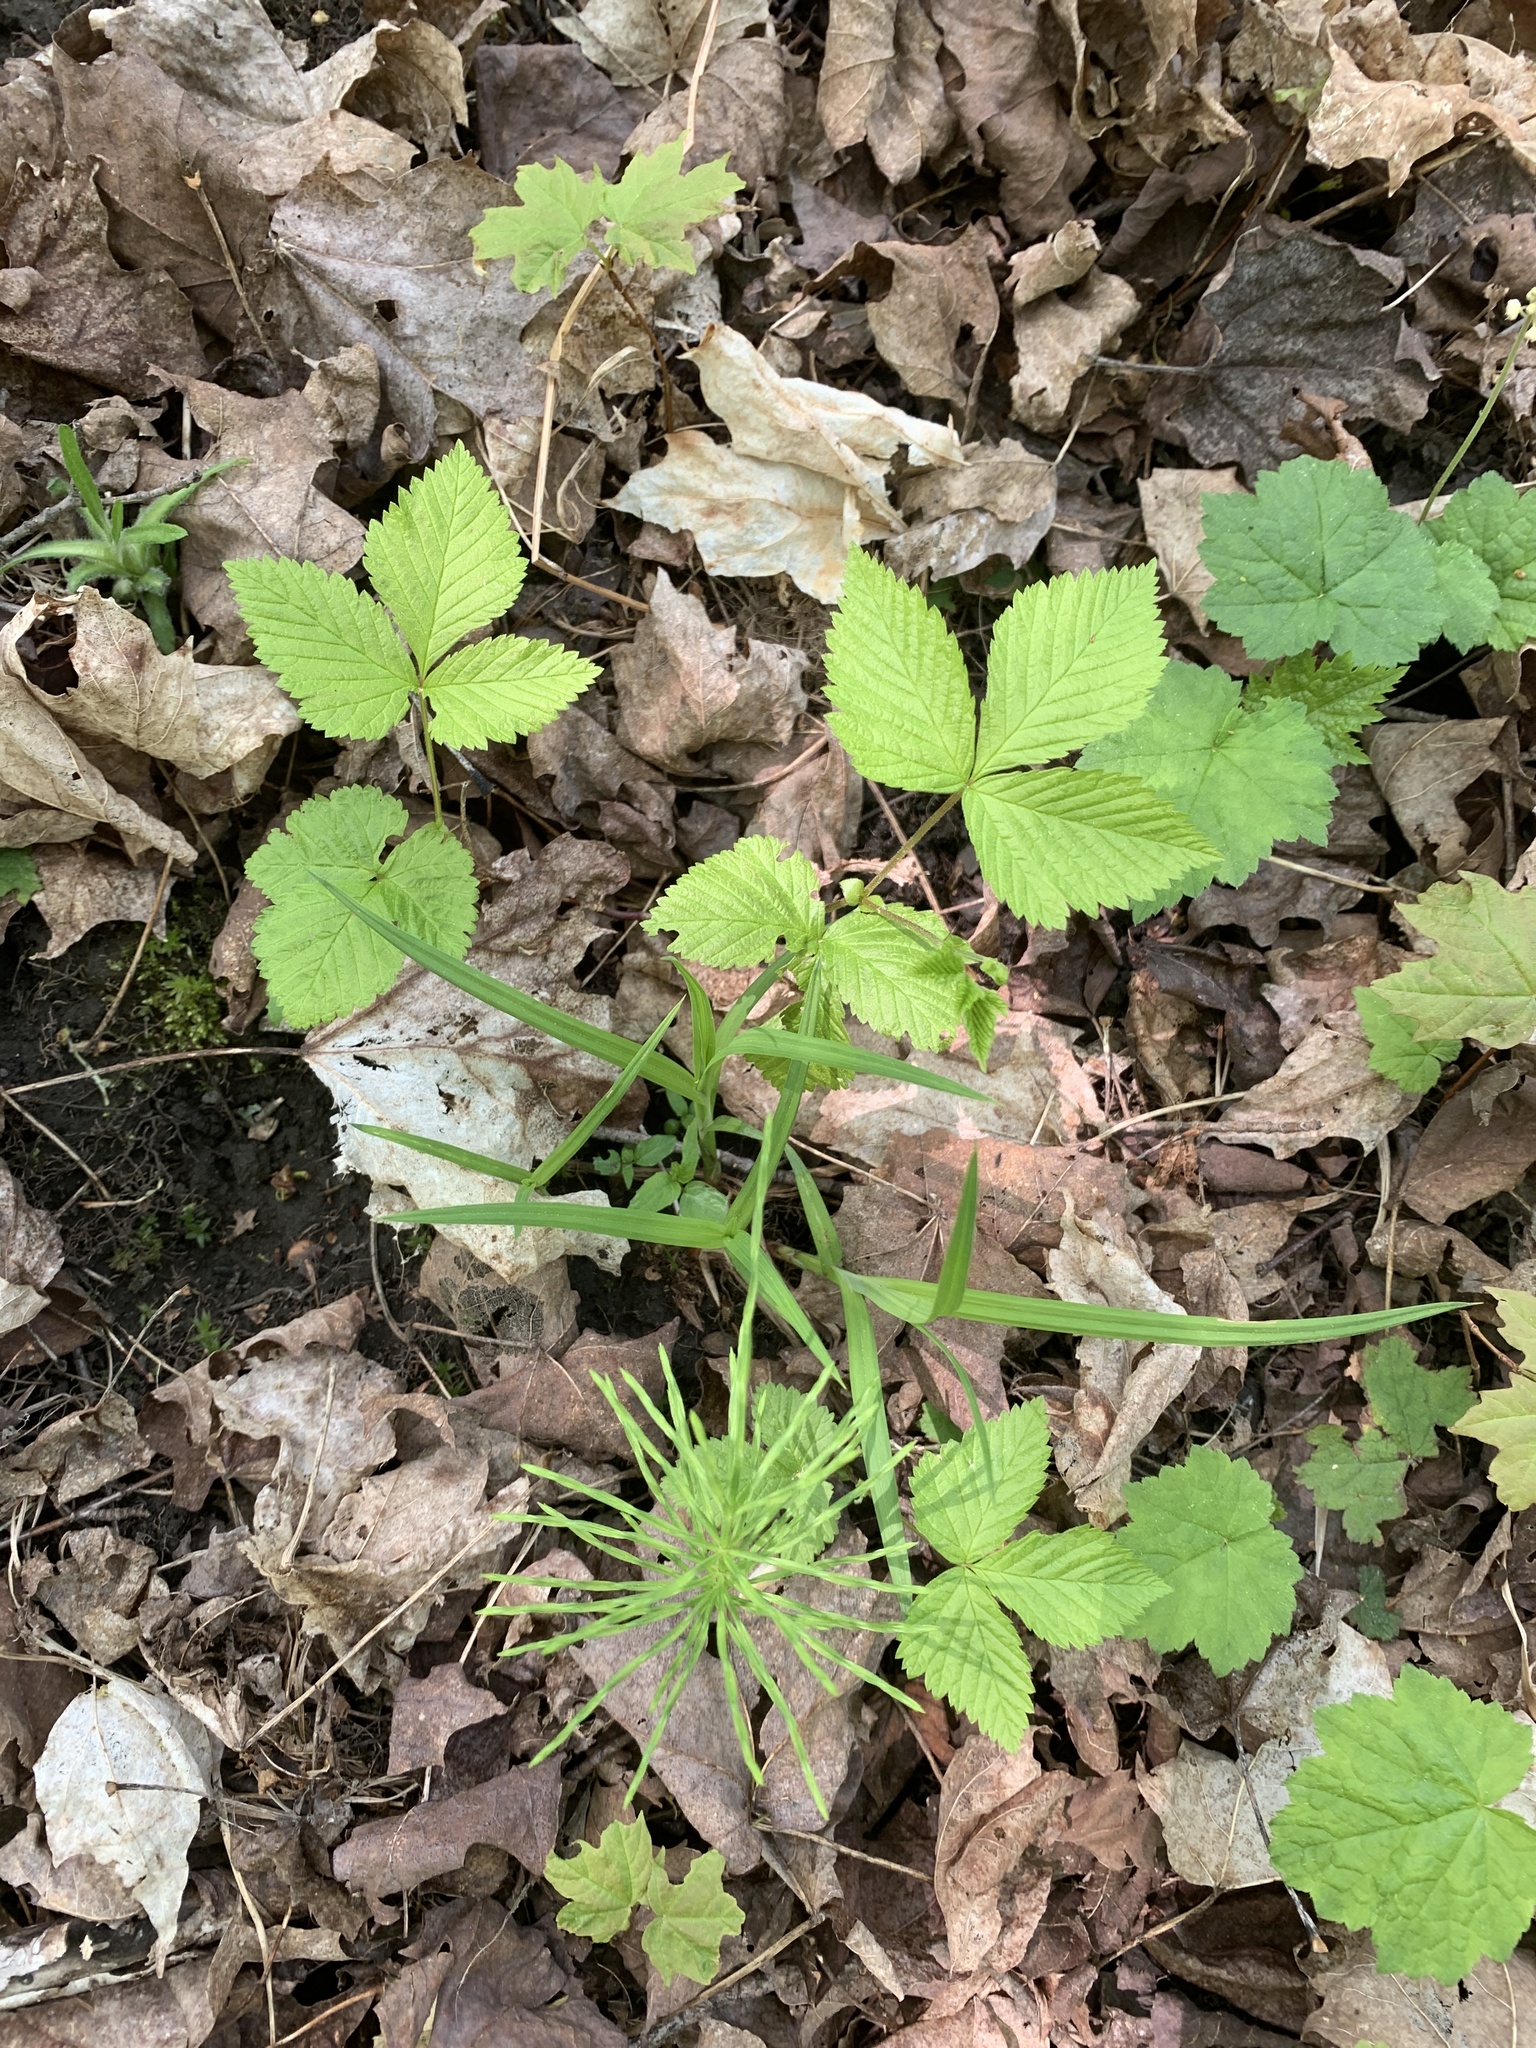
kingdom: Plantae
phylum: Tracheophyta
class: Magnoliopsida
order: Rosales
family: Rosaceae
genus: Rubus
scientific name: Rubus pubescens
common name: Dwarf raspberry
